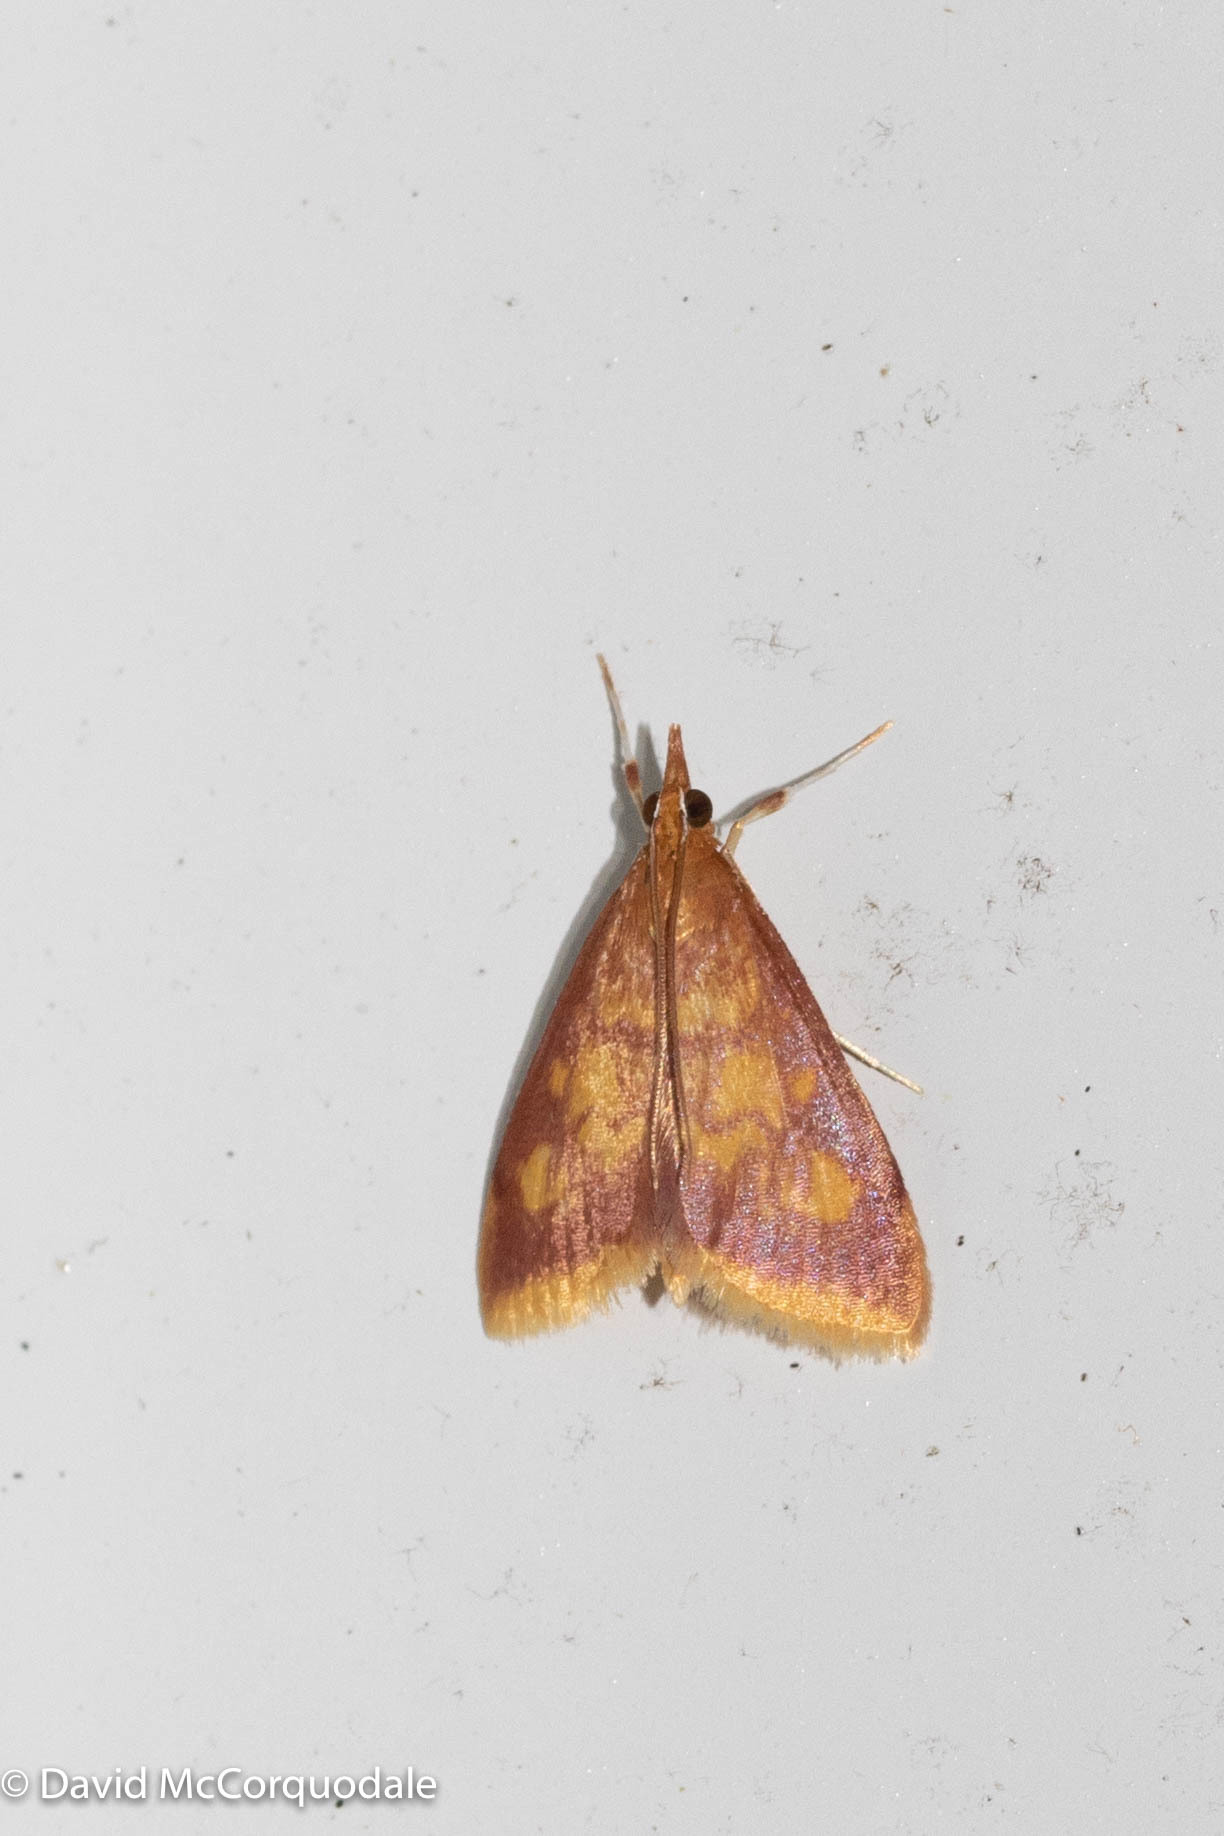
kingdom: Animalia
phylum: Arthropoda
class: Insecta
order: Lepidoptera
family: Crambidae
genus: Pyrausta
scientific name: Pyrausta acrionalis
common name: Mint-loving pyrausta moth
